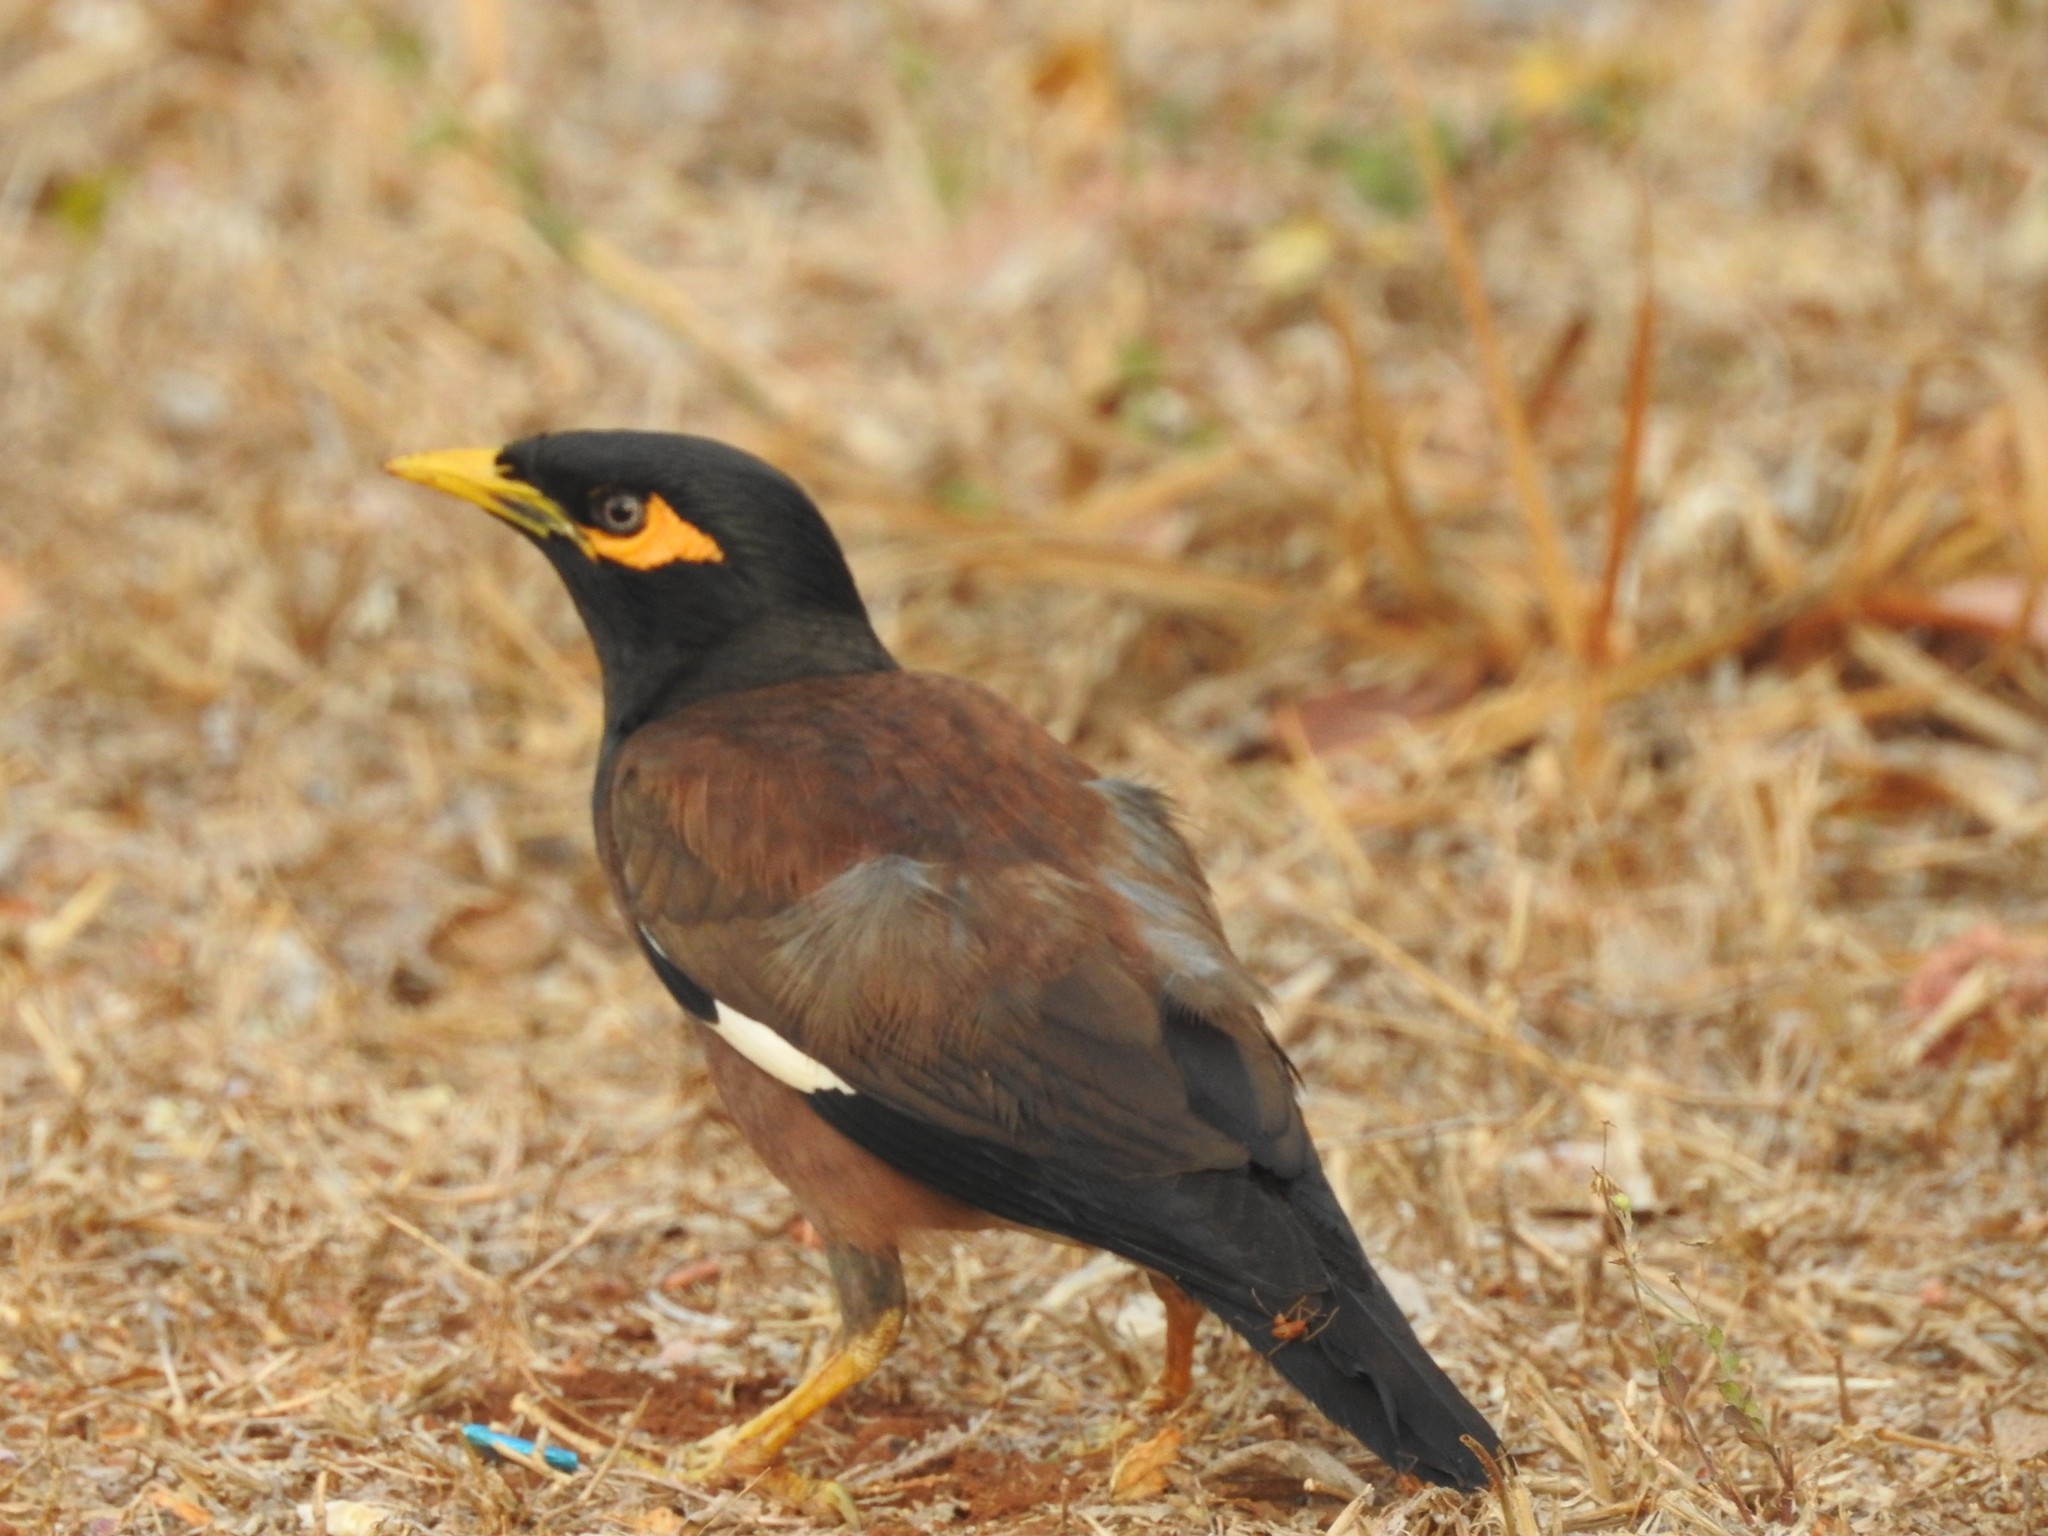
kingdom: Animalia
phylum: Chordata
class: Aves
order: Passeriformes
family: Sturnidae
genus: Acridotheres
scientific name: Acridotheres tristis
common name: Common myna
